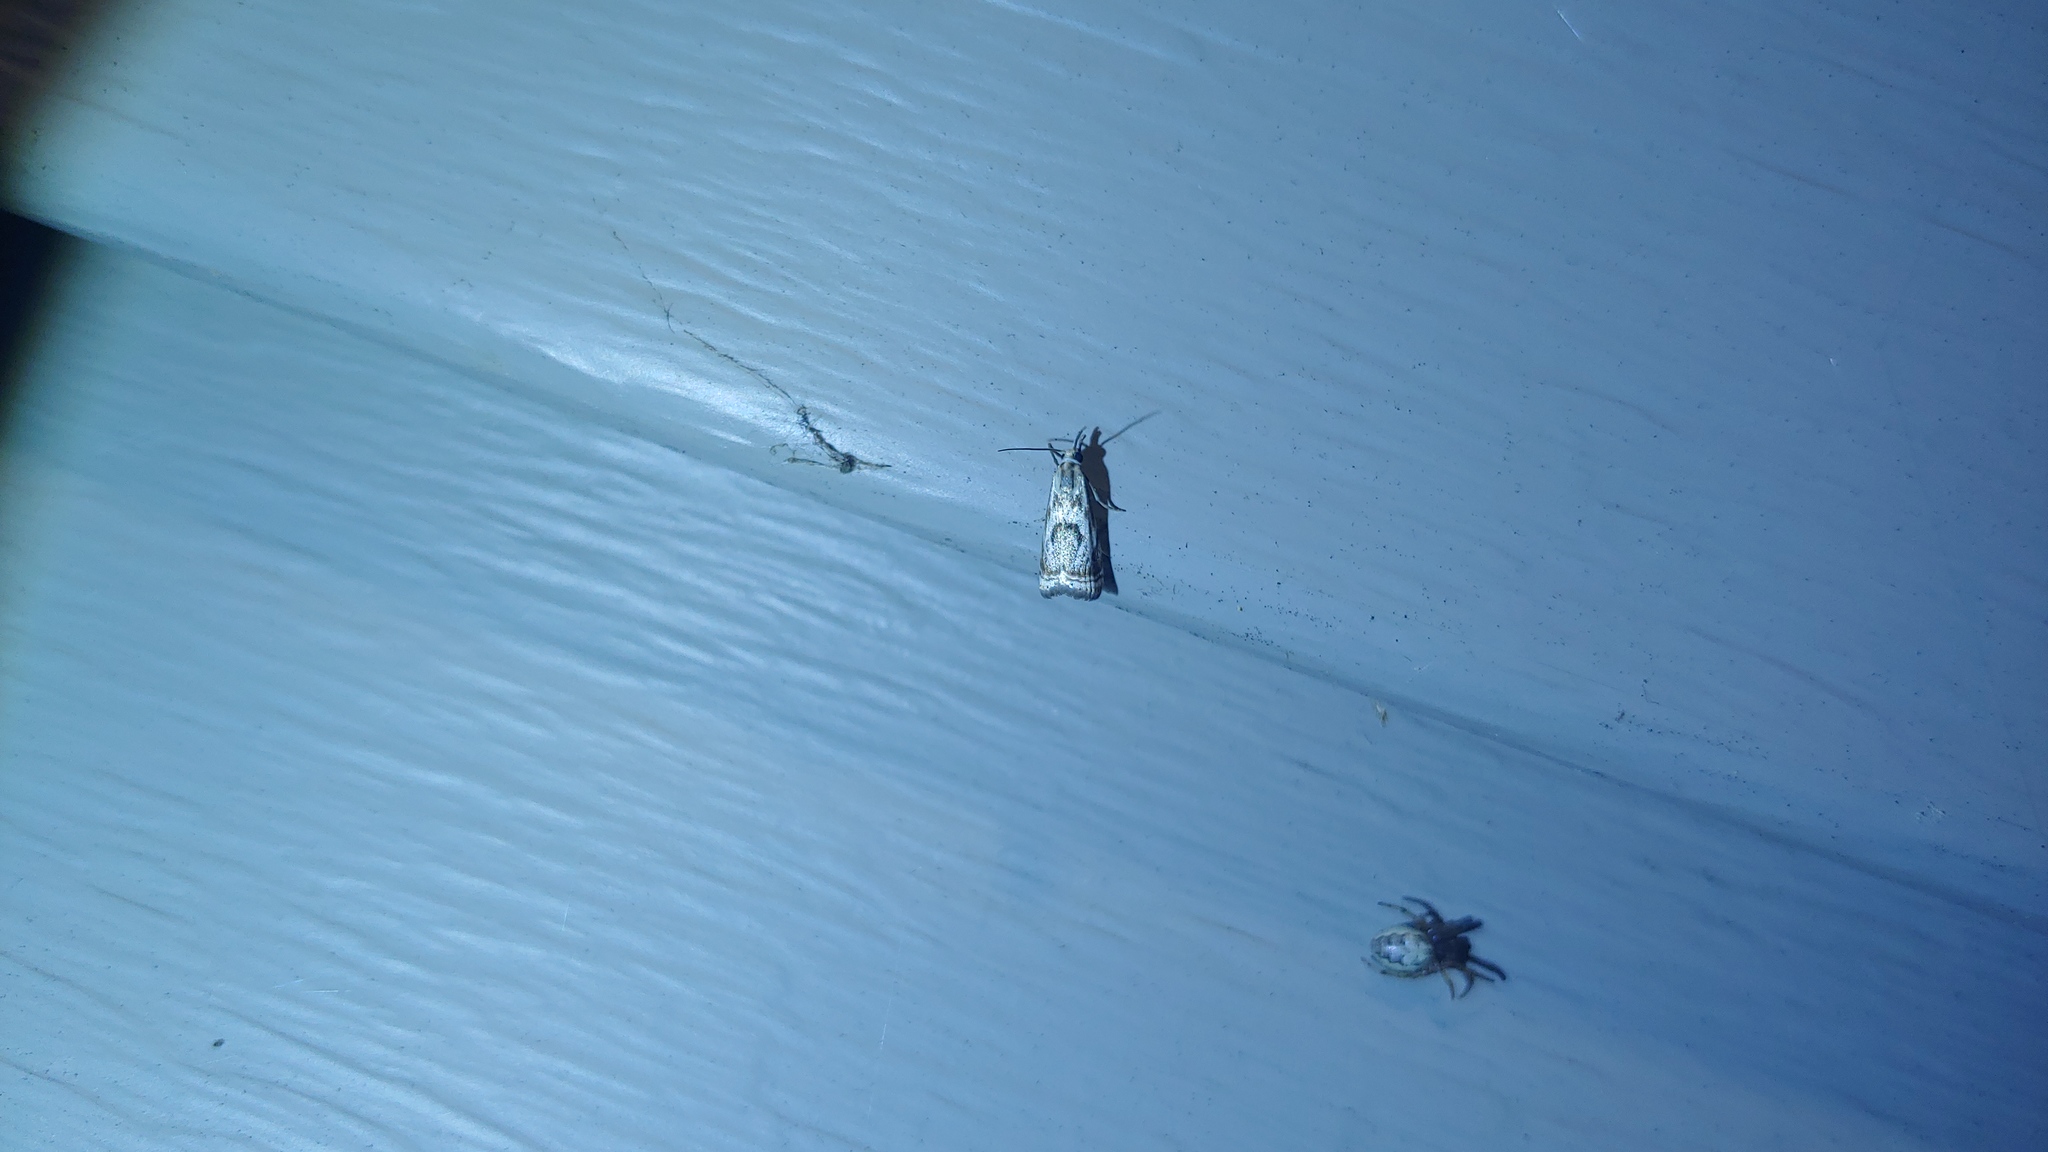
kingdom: Animalia
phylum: Arthropoda
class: Insecta
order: Lepidoptera
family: Crambidae
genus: Microcrambus
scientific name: Microcrambus elegans
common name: Elegant grass-veneer
